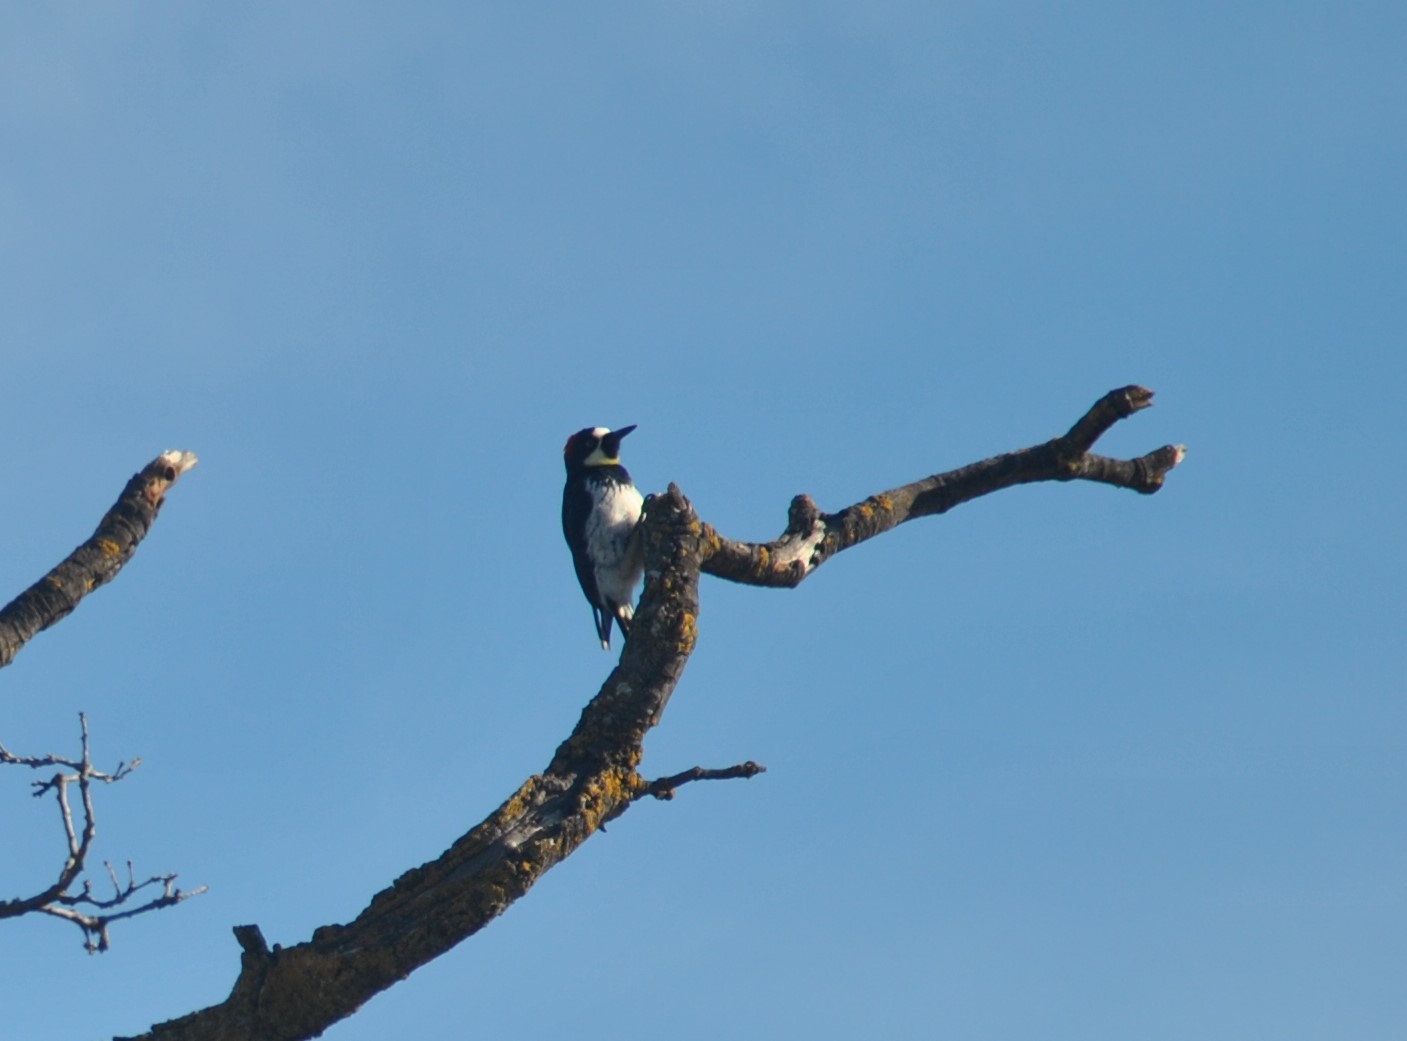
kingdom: Animalia
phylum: Chordata
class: Aves
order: Piciformes
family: Picidae
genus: Melanerpes
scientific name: Melanerpes formicivorus
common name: Acorn woodpecker
